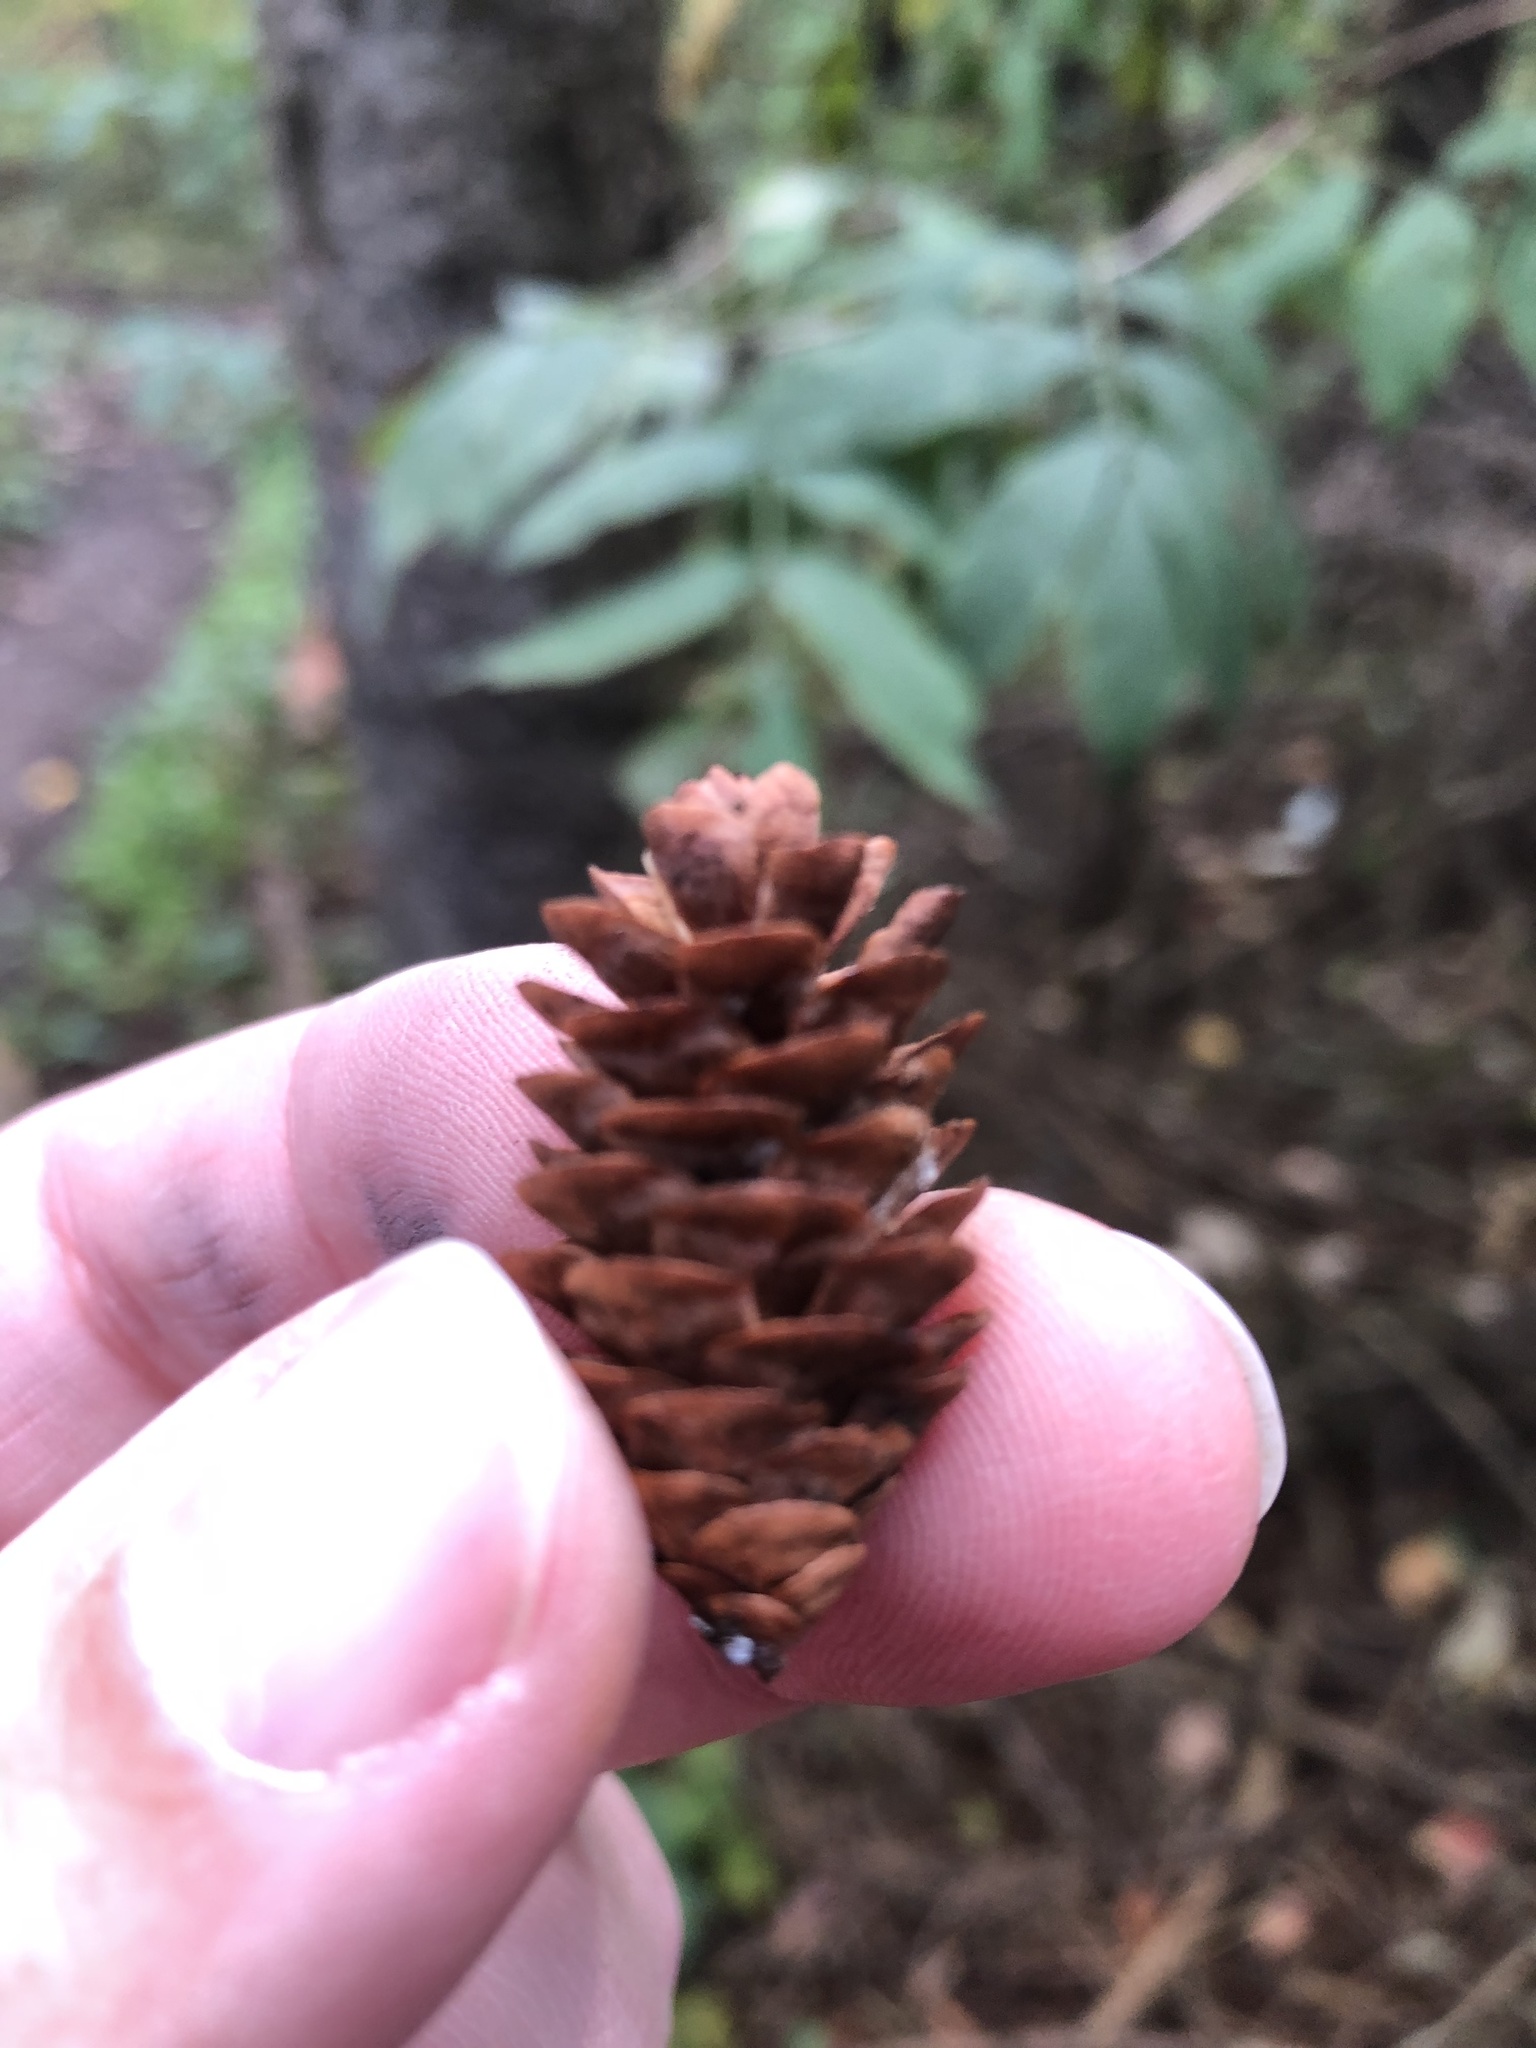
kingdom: Plantae
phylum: Tracheophyta
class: Pinopsida
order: Pinales
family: Pinaceae
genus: Picea
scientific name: Picea glauca
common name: White spruce
